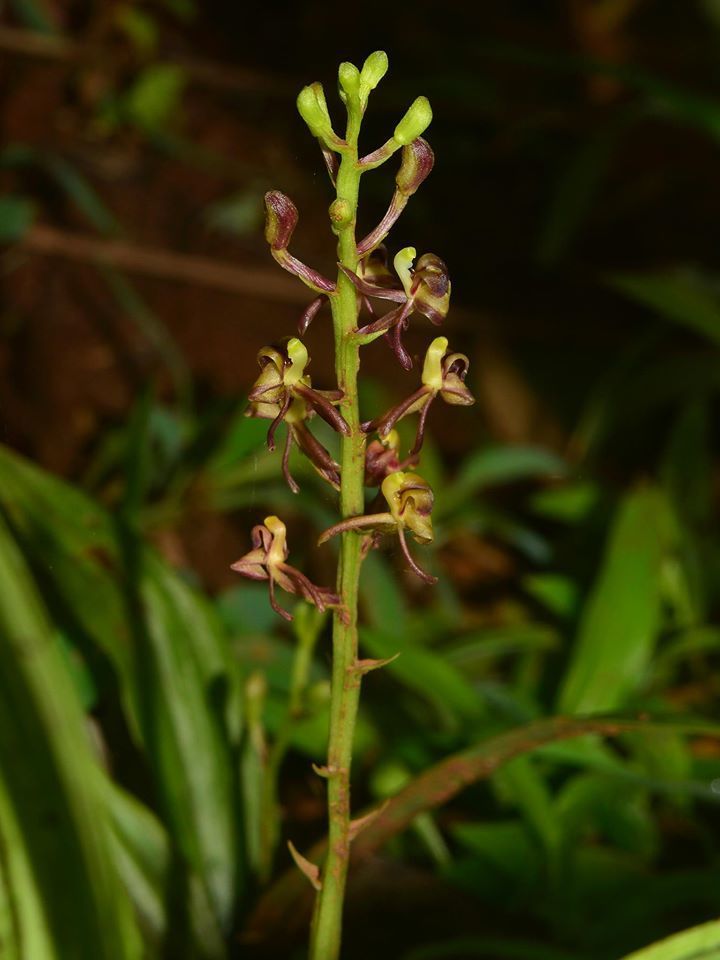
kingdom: Plantae
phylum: Tracheophyta
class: Liliopsida
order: Asparagales
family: Orchidaceae
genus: Liparis
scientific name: Liparis odorata
